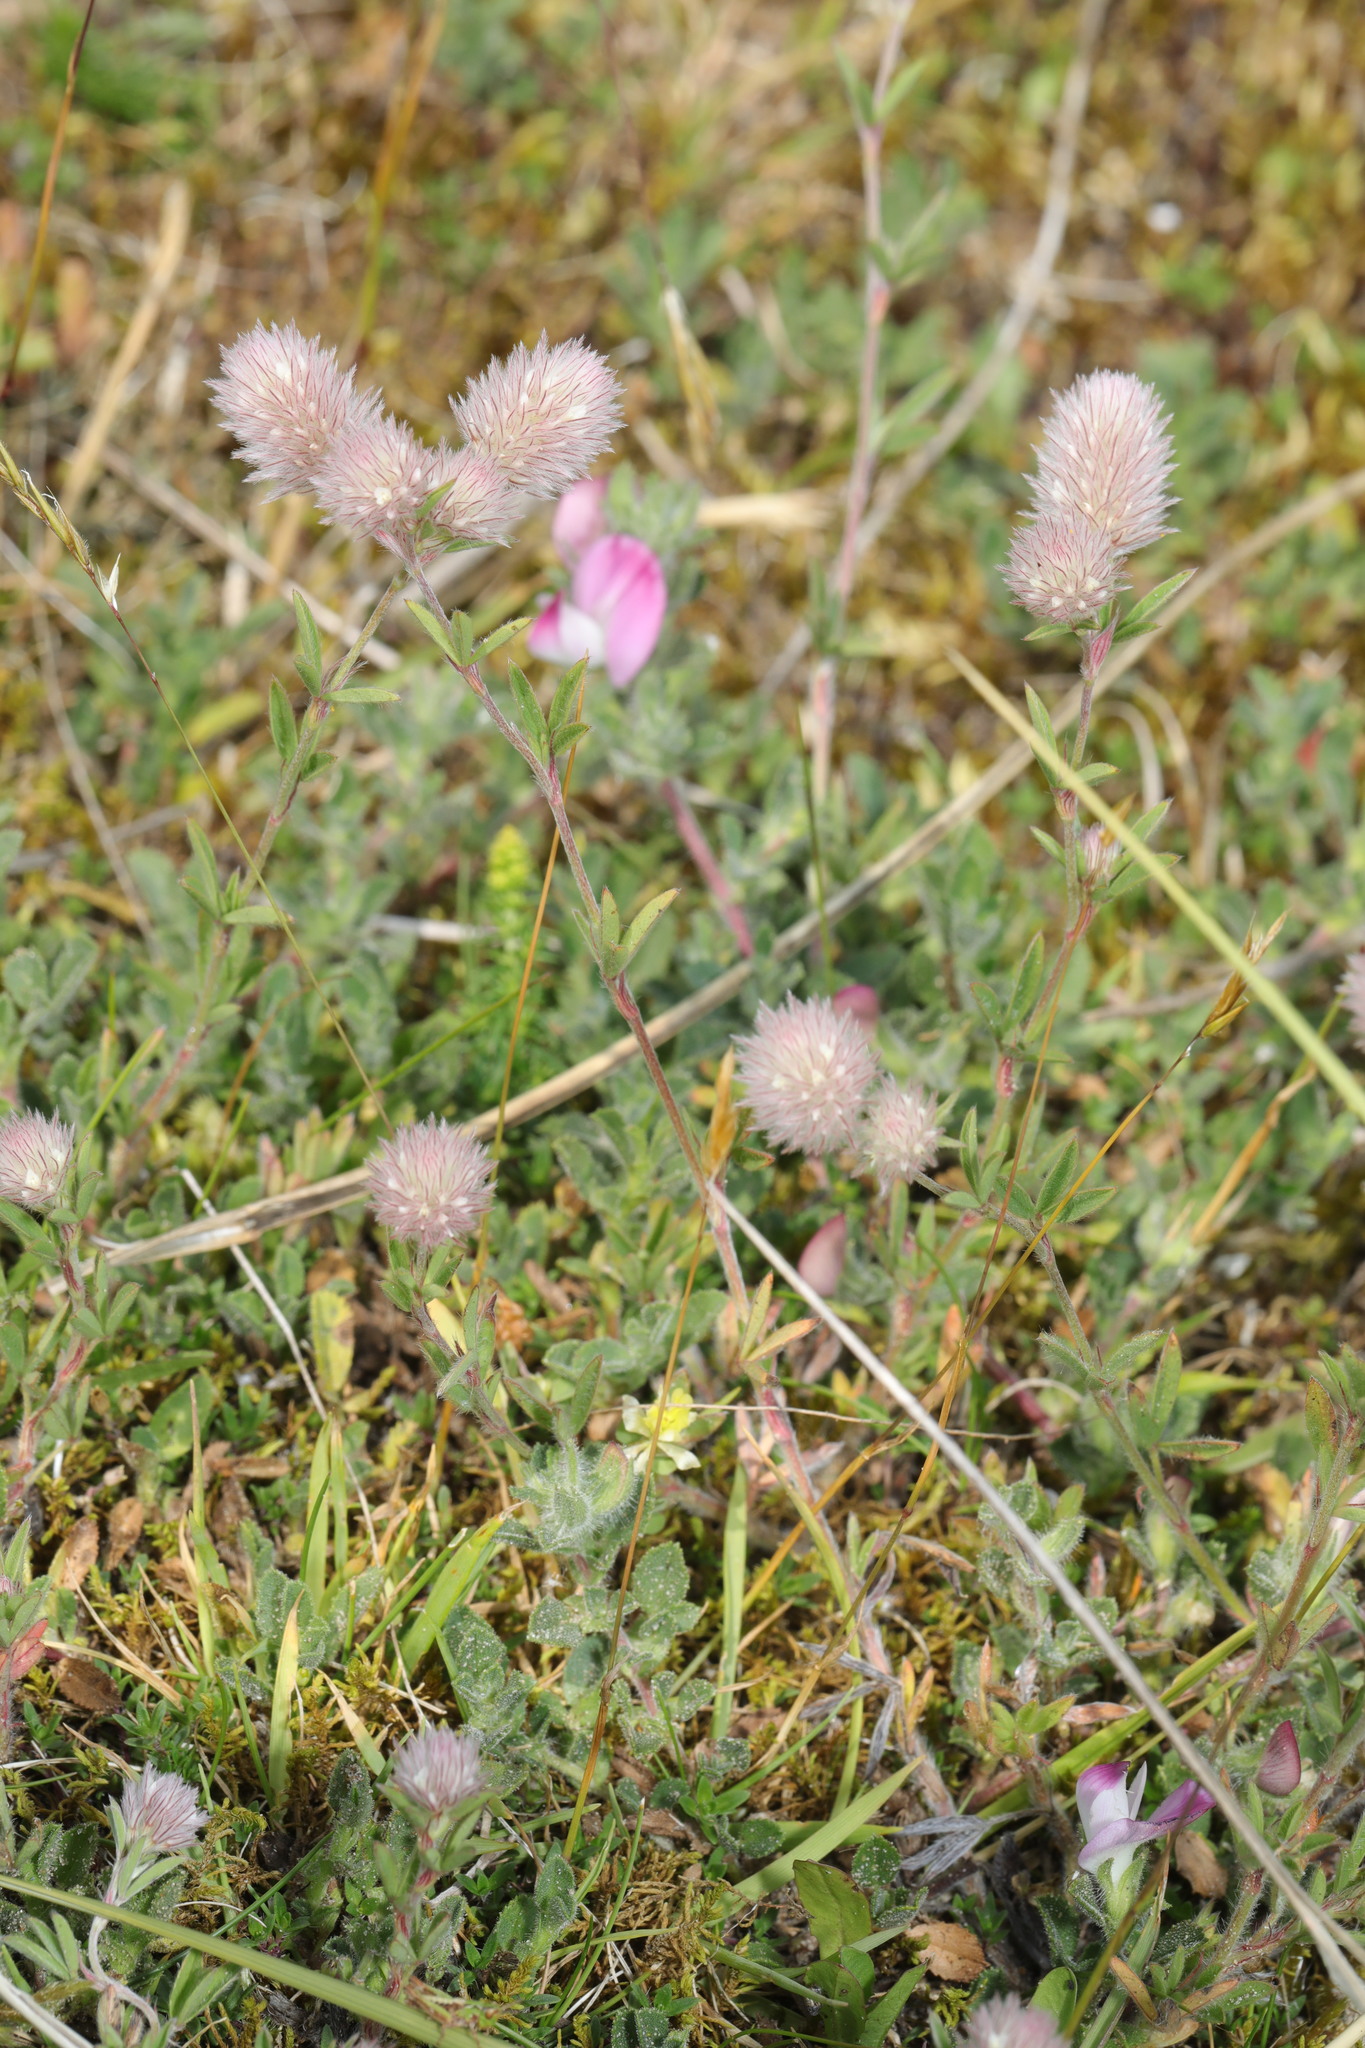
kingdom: Plantae
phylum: Tracheophyta
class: Magnoliopsida
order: Fabales
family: Fabaceae
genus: Trifolium
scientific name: Trifolium arvense
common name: Hare's-foot clover
